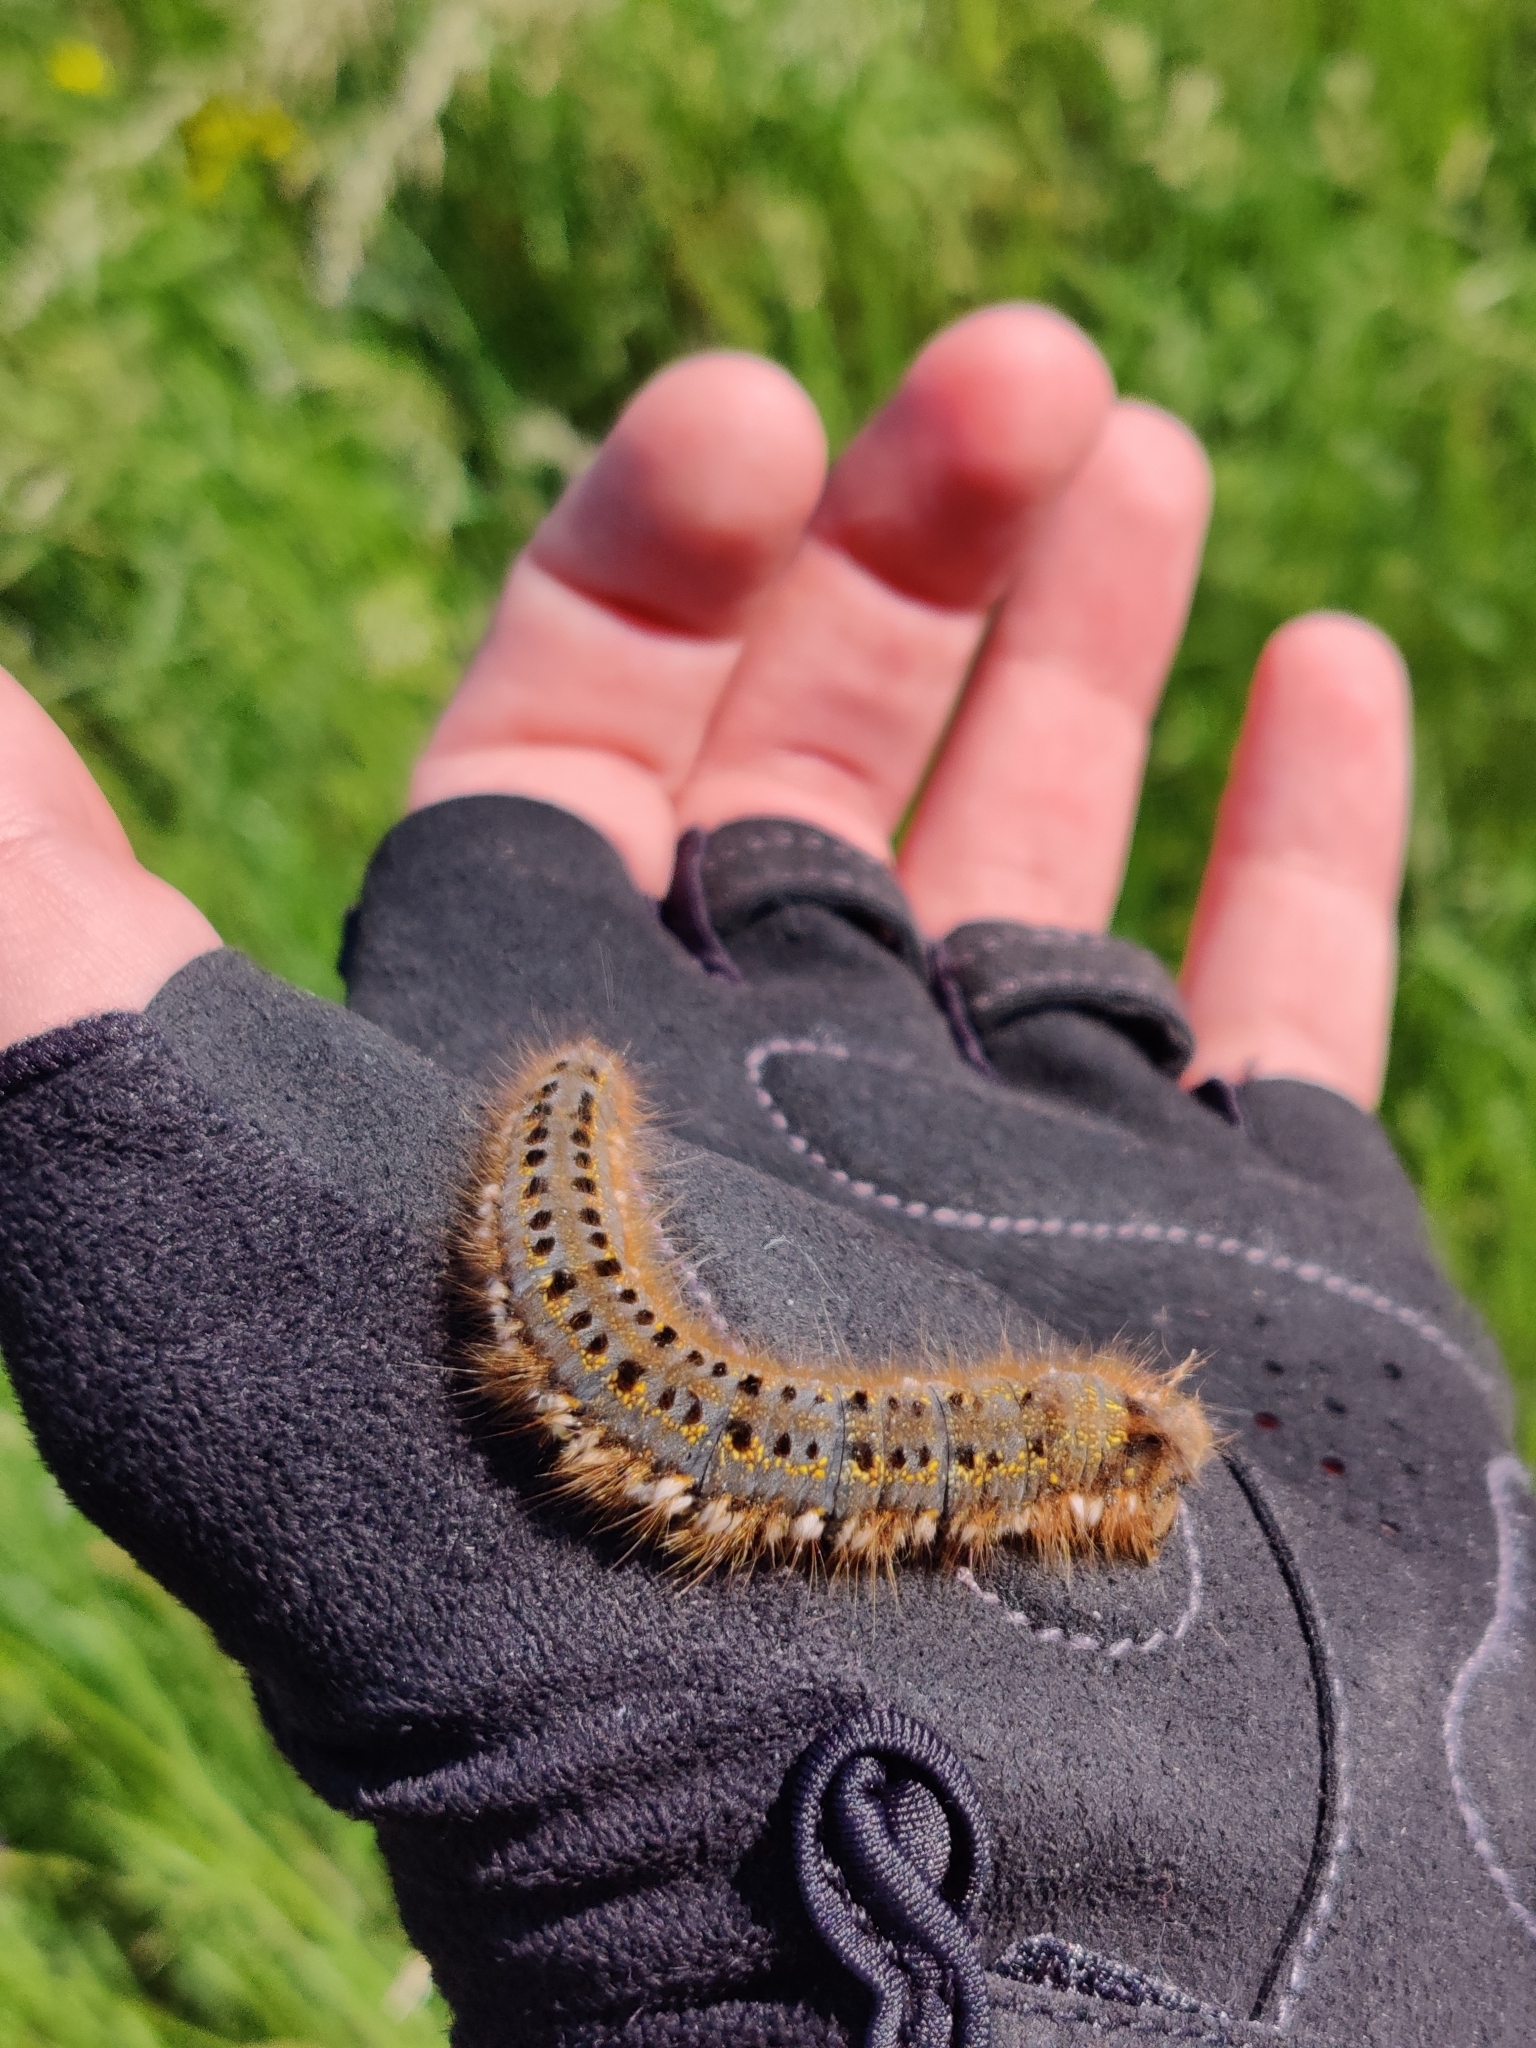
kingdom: Animalia
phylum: Arthropoda
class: Insecta
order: Lepidoptera
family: Lasiocampidae
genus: Euthrix
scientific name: Euthrix potatoria
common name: Drinker
